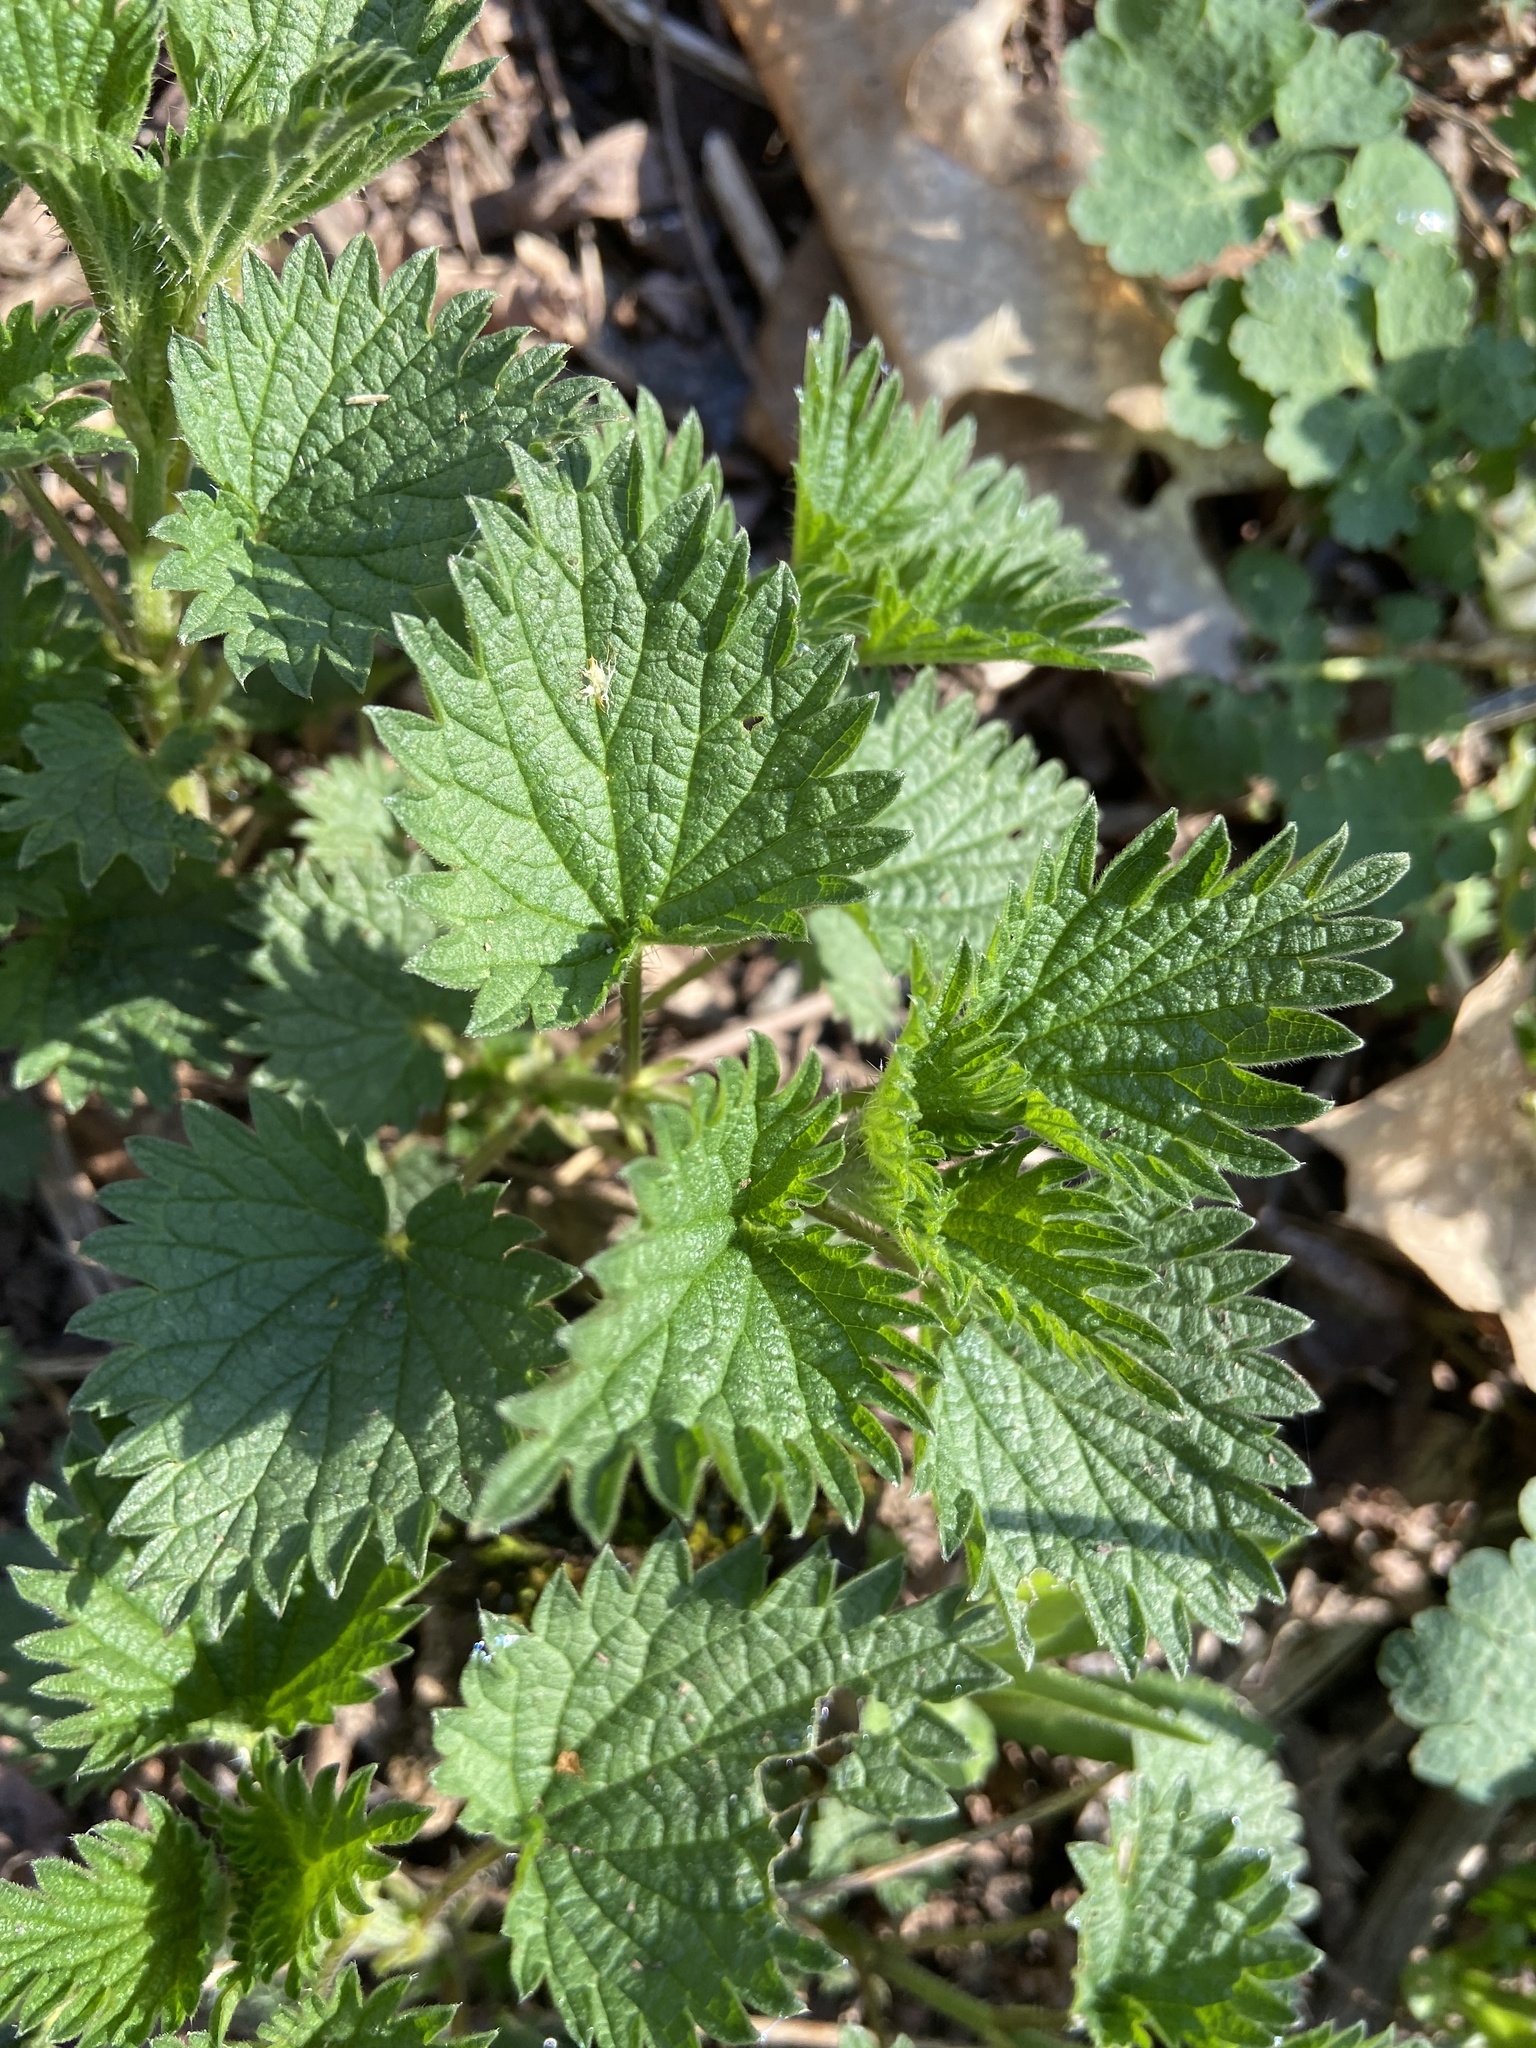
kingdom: Plantae
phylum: Tracheophyta
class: Magnoliopsida
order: Rosales
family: Urticaceae
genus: Urtica
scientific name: Urtica dioica
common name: Common nettle
